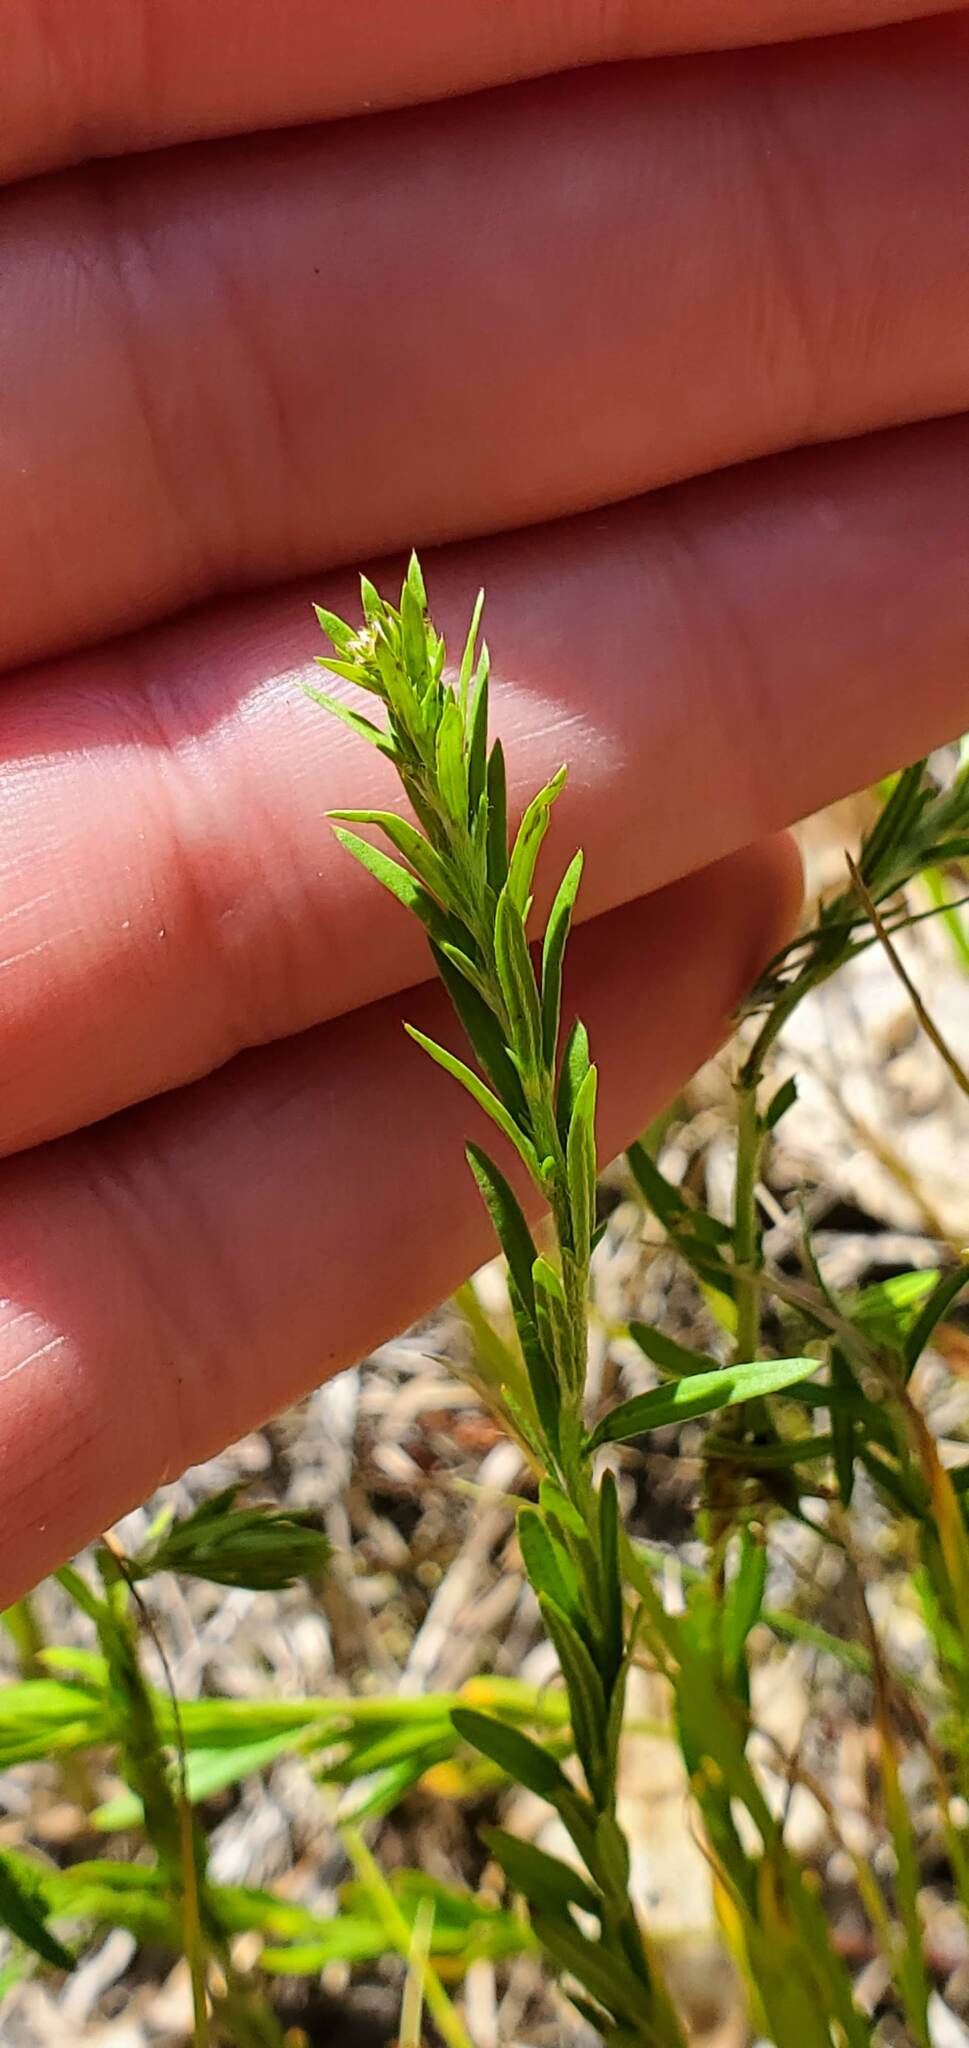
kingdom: Plantae
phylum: Tracheophyta
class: Magnoliopsida
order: Malvales
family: Cistaceae
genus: Lechea
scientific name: Lechea intermedia
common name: Intermediate pinweed
